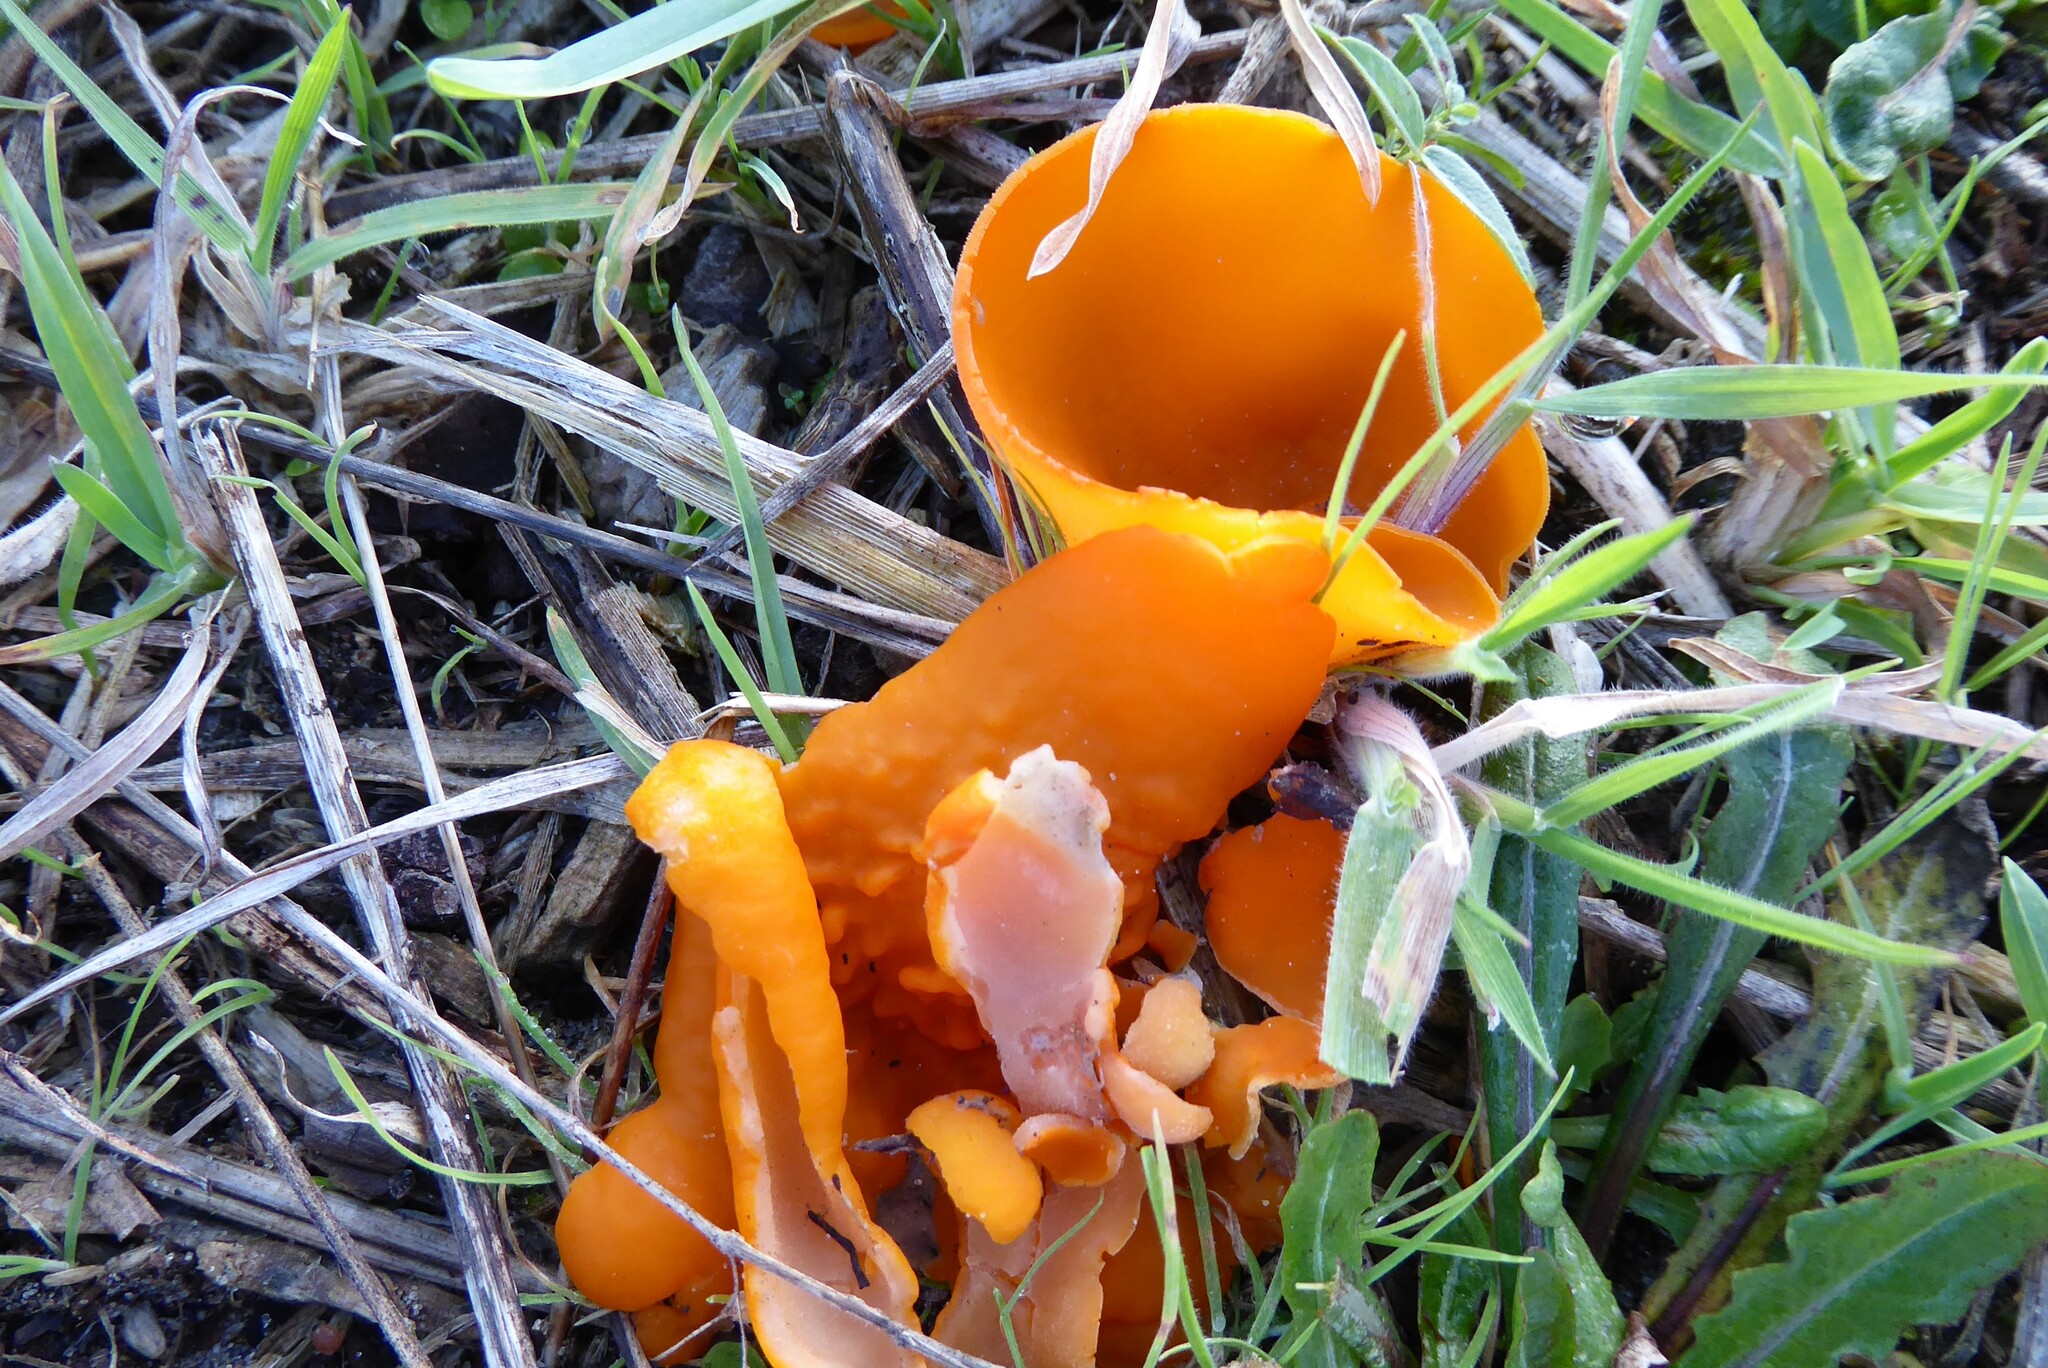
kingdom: Fungi
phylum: Ascomycota
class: Pezizomycetes
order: Pezizales
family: Pyronemataceae
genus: Aleuria
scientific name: Aleuria aurantia
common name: Orange peel fungus
